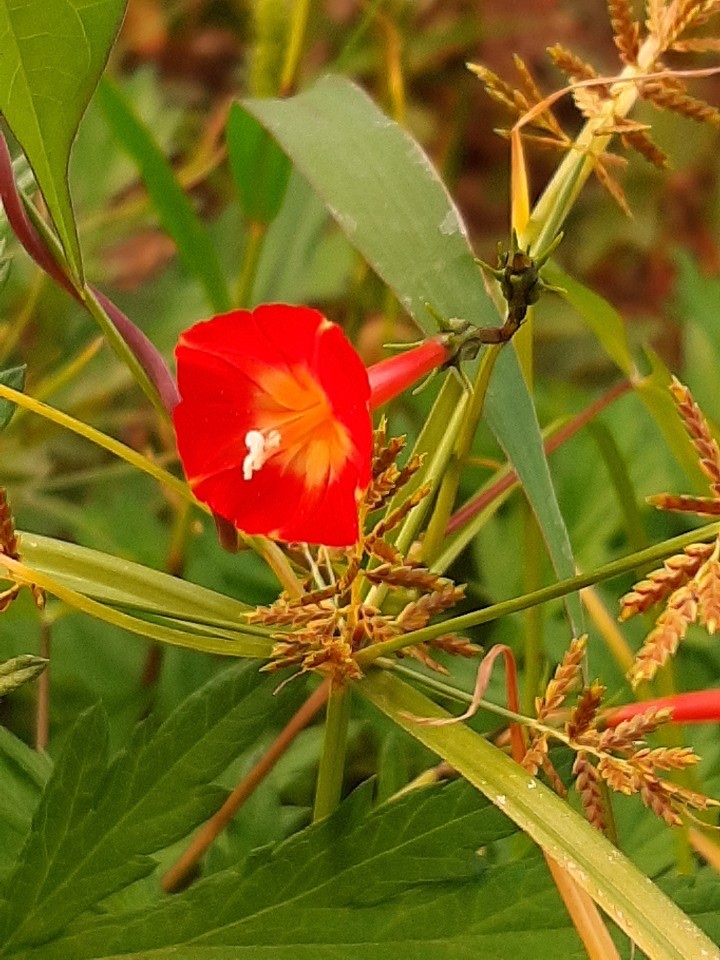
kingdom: Plantae
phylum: Tracheophyta
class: Magnoliopsida
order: Solanales
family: Convolvulaceae
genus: Ipomoea
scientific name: Ipomoea coccinea
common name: Red morning-glory
